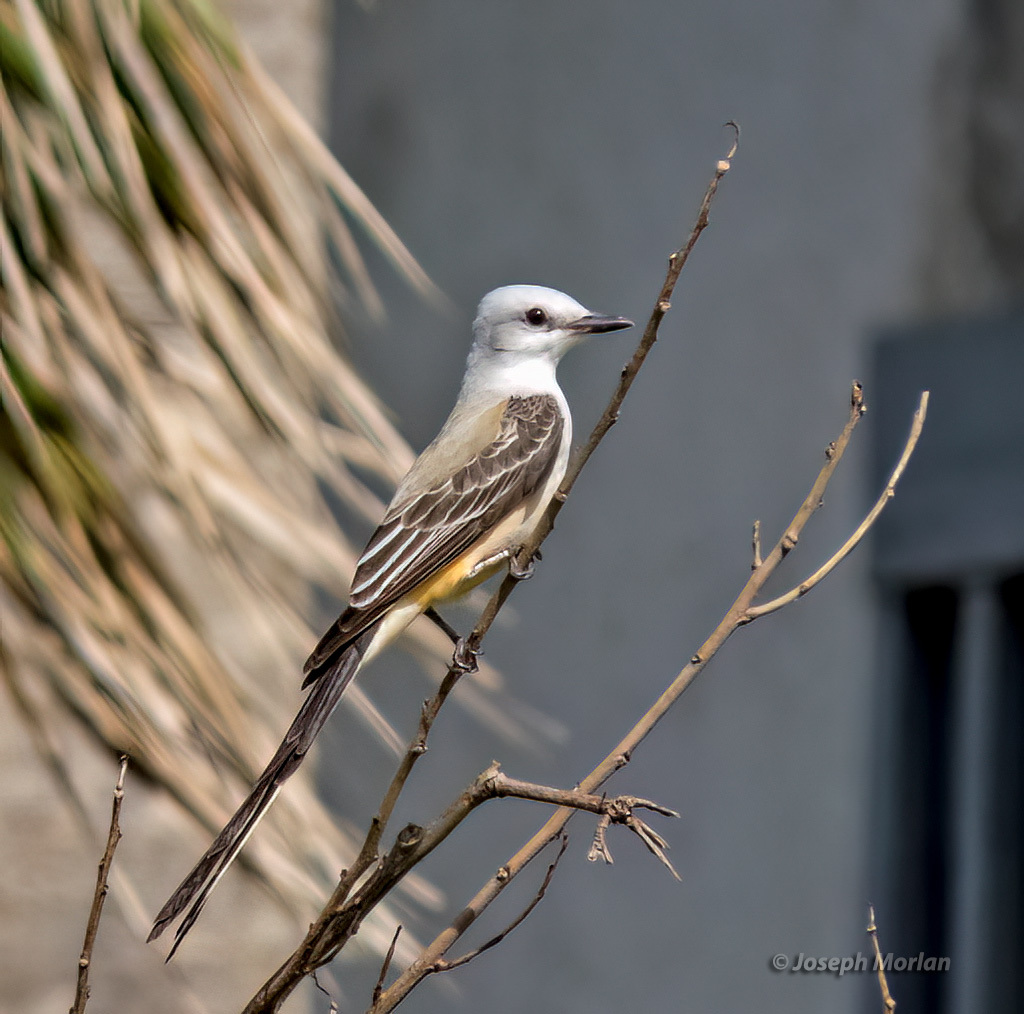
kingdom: Animalia
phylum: Chordata
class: Aves
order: Passeriformes
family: Tyrannidae
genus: Tyrannus
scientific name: Tyrannus forficatus
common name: Scissor-tailed flycatcher
